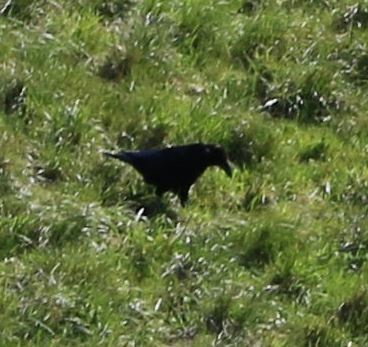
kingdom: Animalia
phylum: Chordata
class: Aves
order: Passeriformes
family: Corvidae
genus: Corvus
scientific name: Corvus corone
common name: Carrion crow
